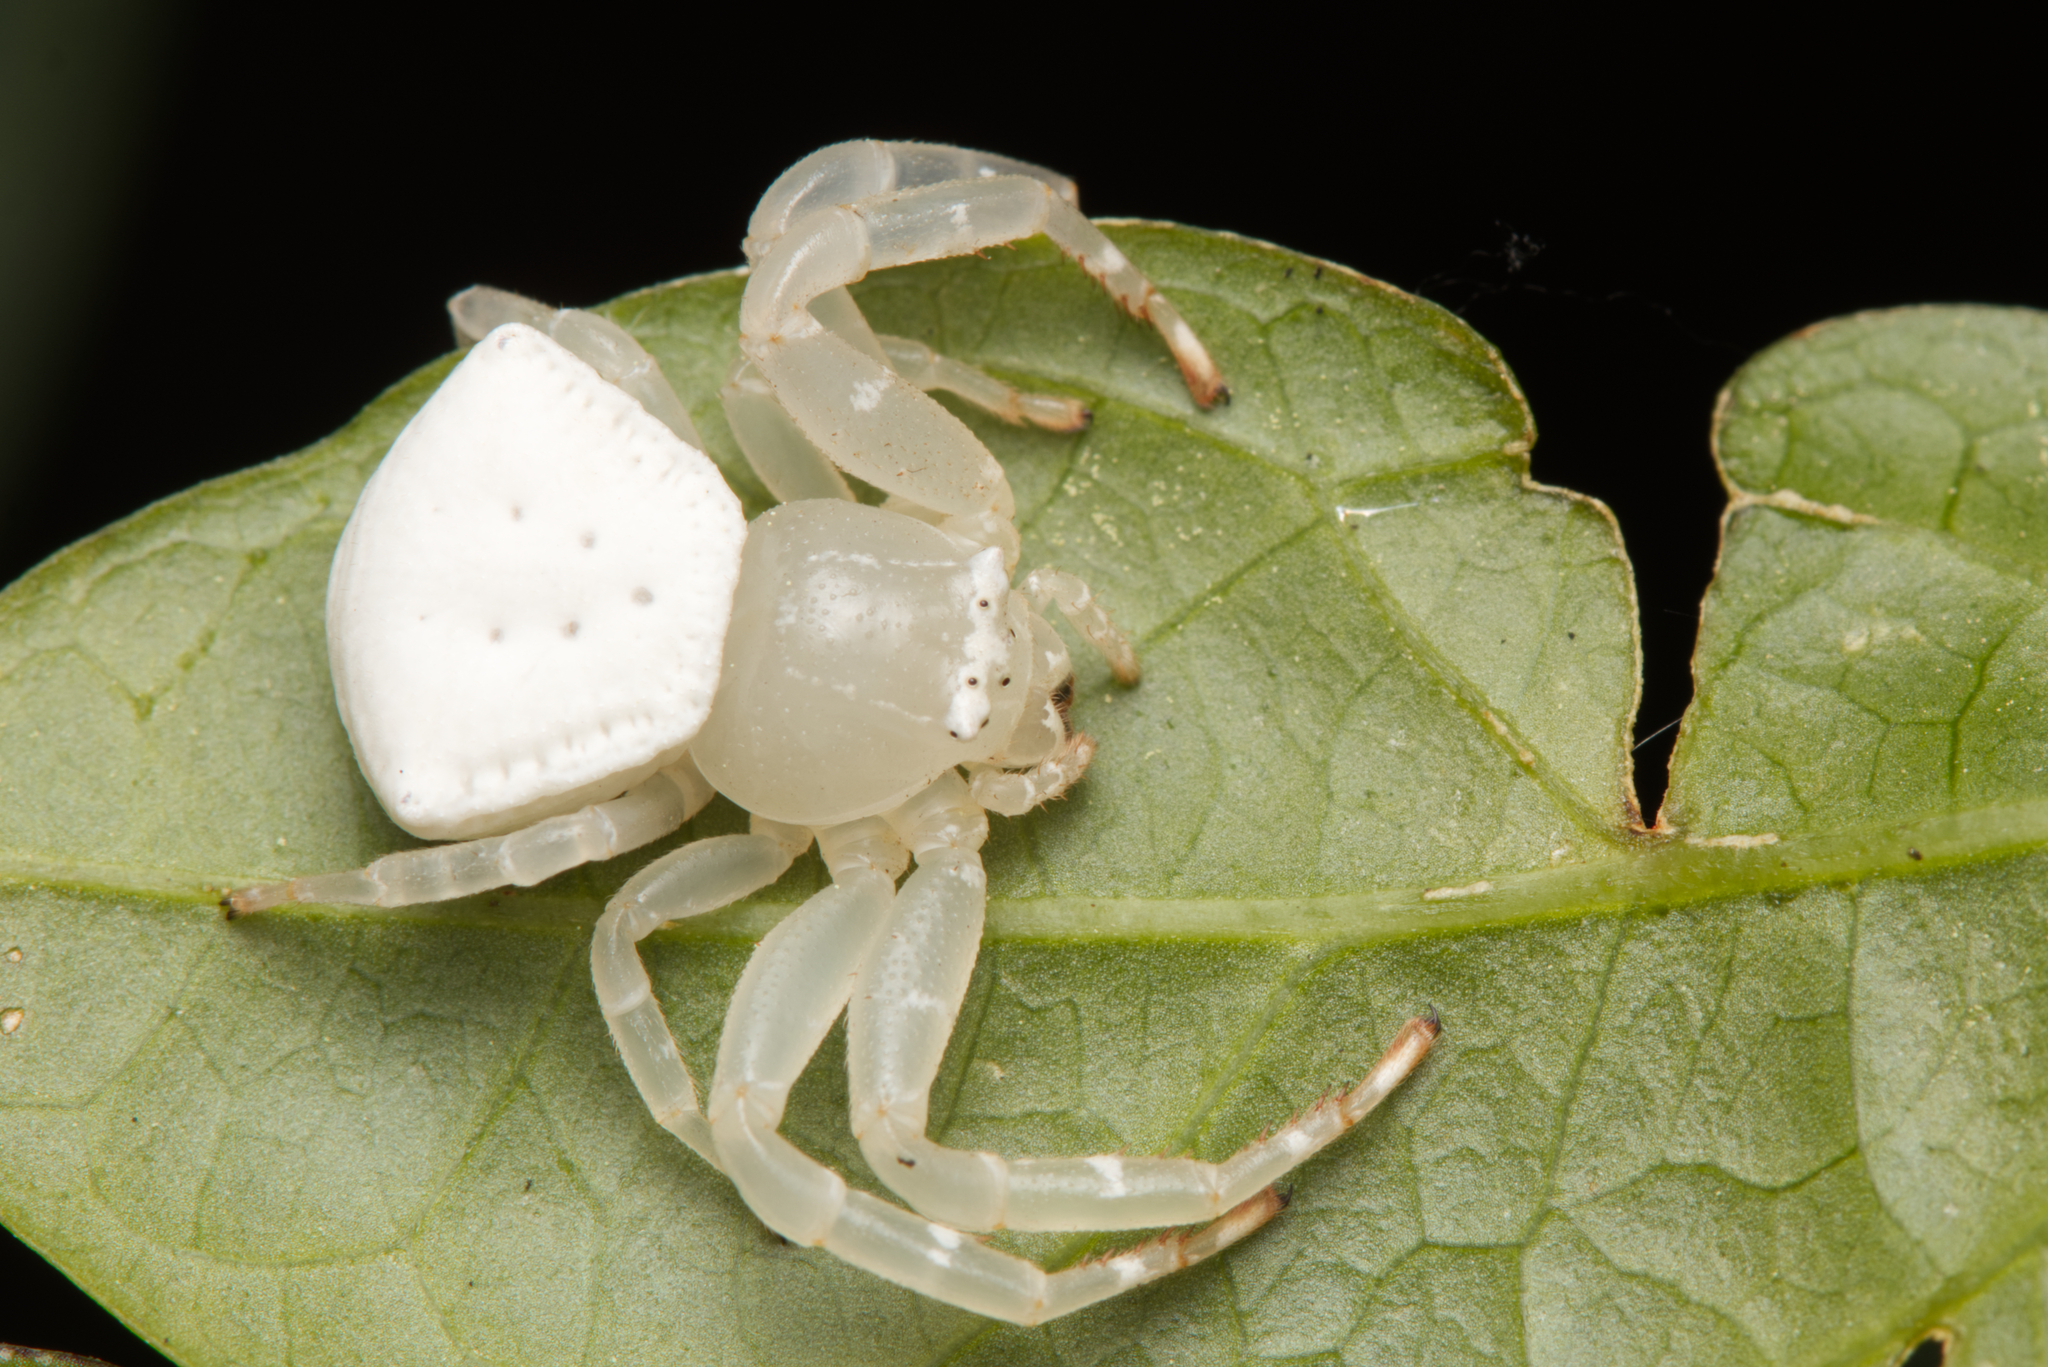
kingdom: Animalia
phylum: Arthropoda
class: Arachnida
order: Araneae
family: Thomisidae
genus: Thomisus
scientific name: Thomisus spectabilis
